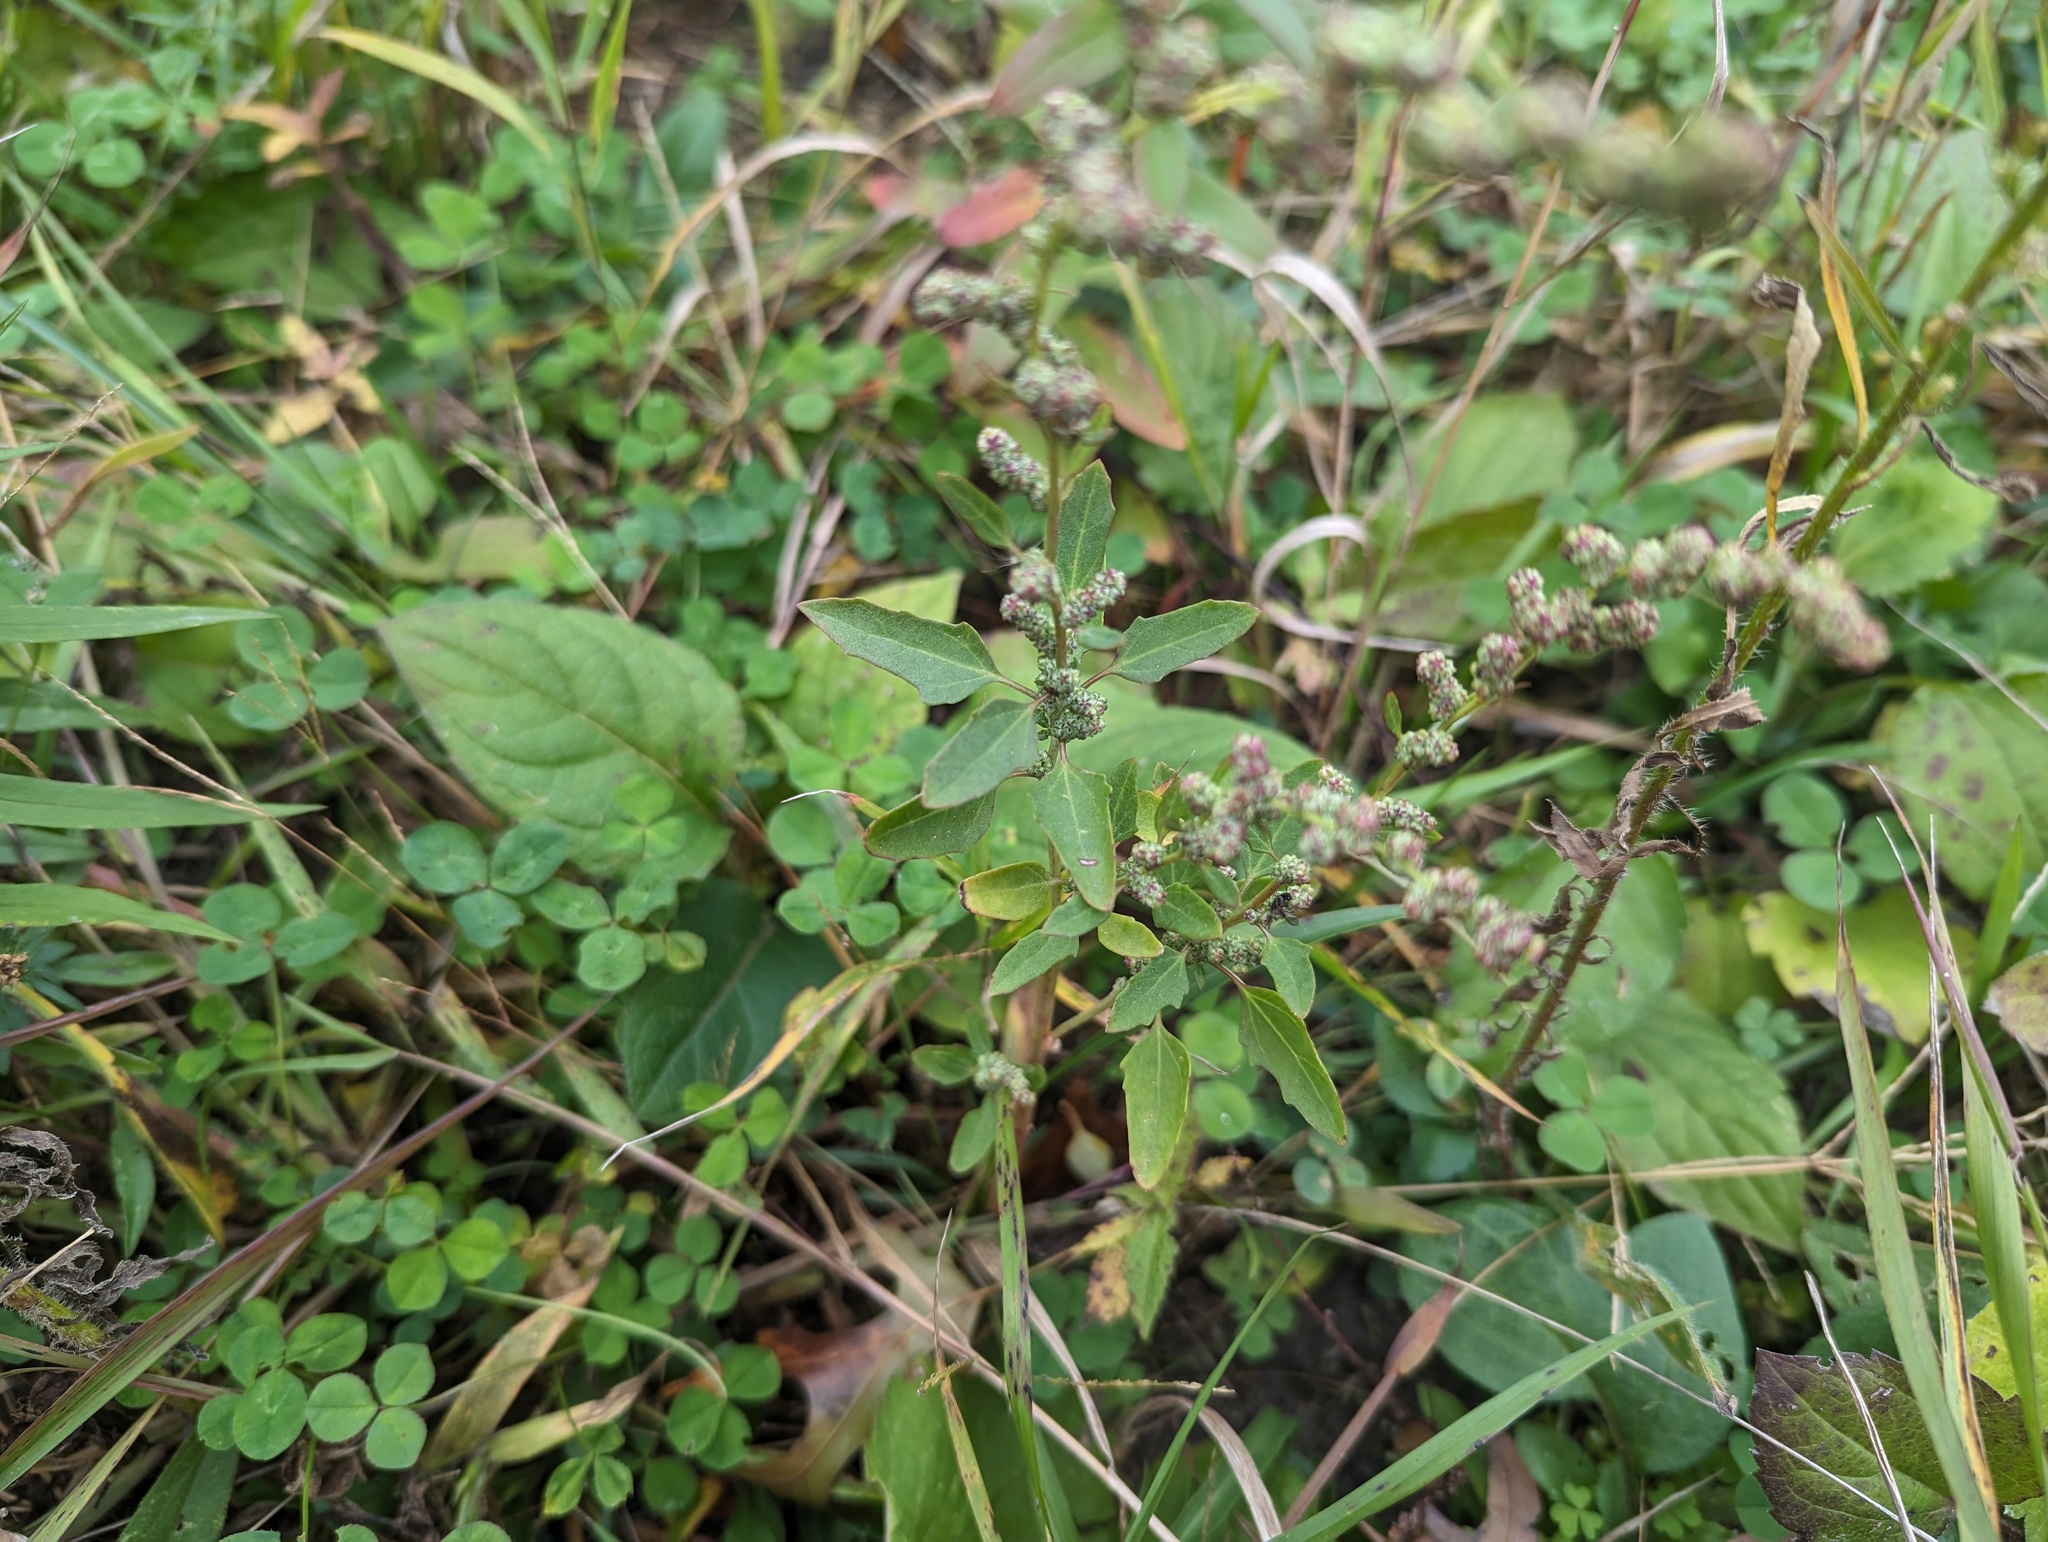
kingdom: Plantae
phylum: Tracheophyta
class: Magnoliopsida
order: Caryophyllales
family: Amaranthaceae
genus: Chenopodium
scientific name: Chenopodium album
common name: Fat-hen
